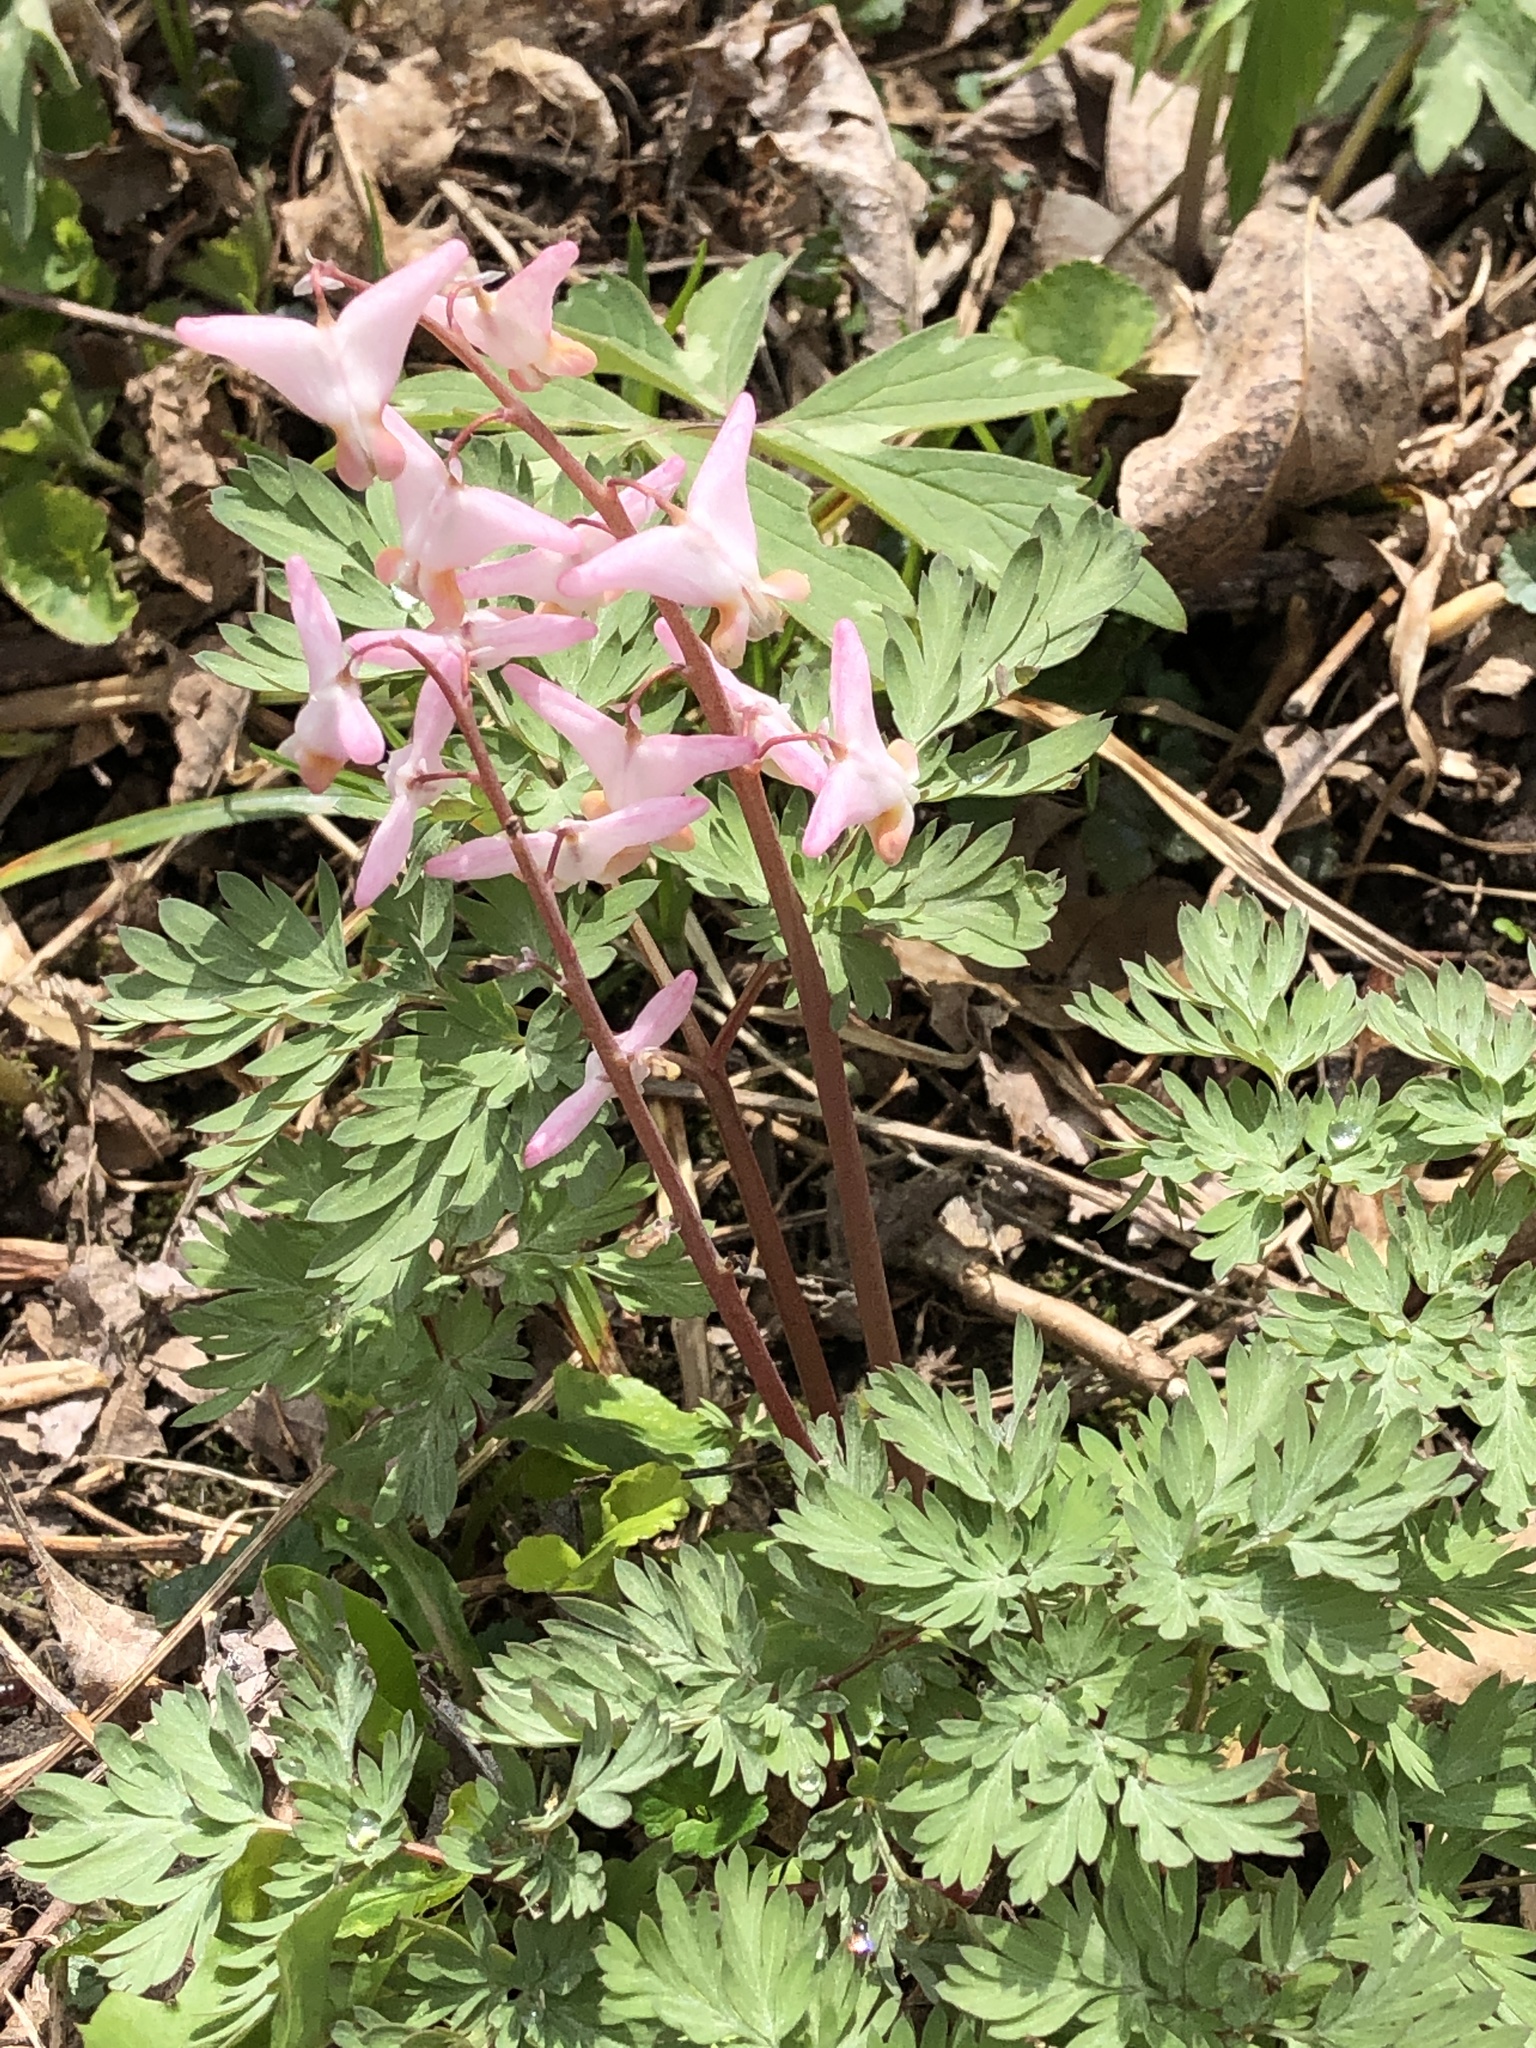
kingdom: Plantae
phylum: Tracheophyta
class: Magnoliopsida
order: Ranunculales
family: Papaveraceae
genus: Dicentra
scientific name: Dicentra cucullaria
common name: Dutchman's breeches
